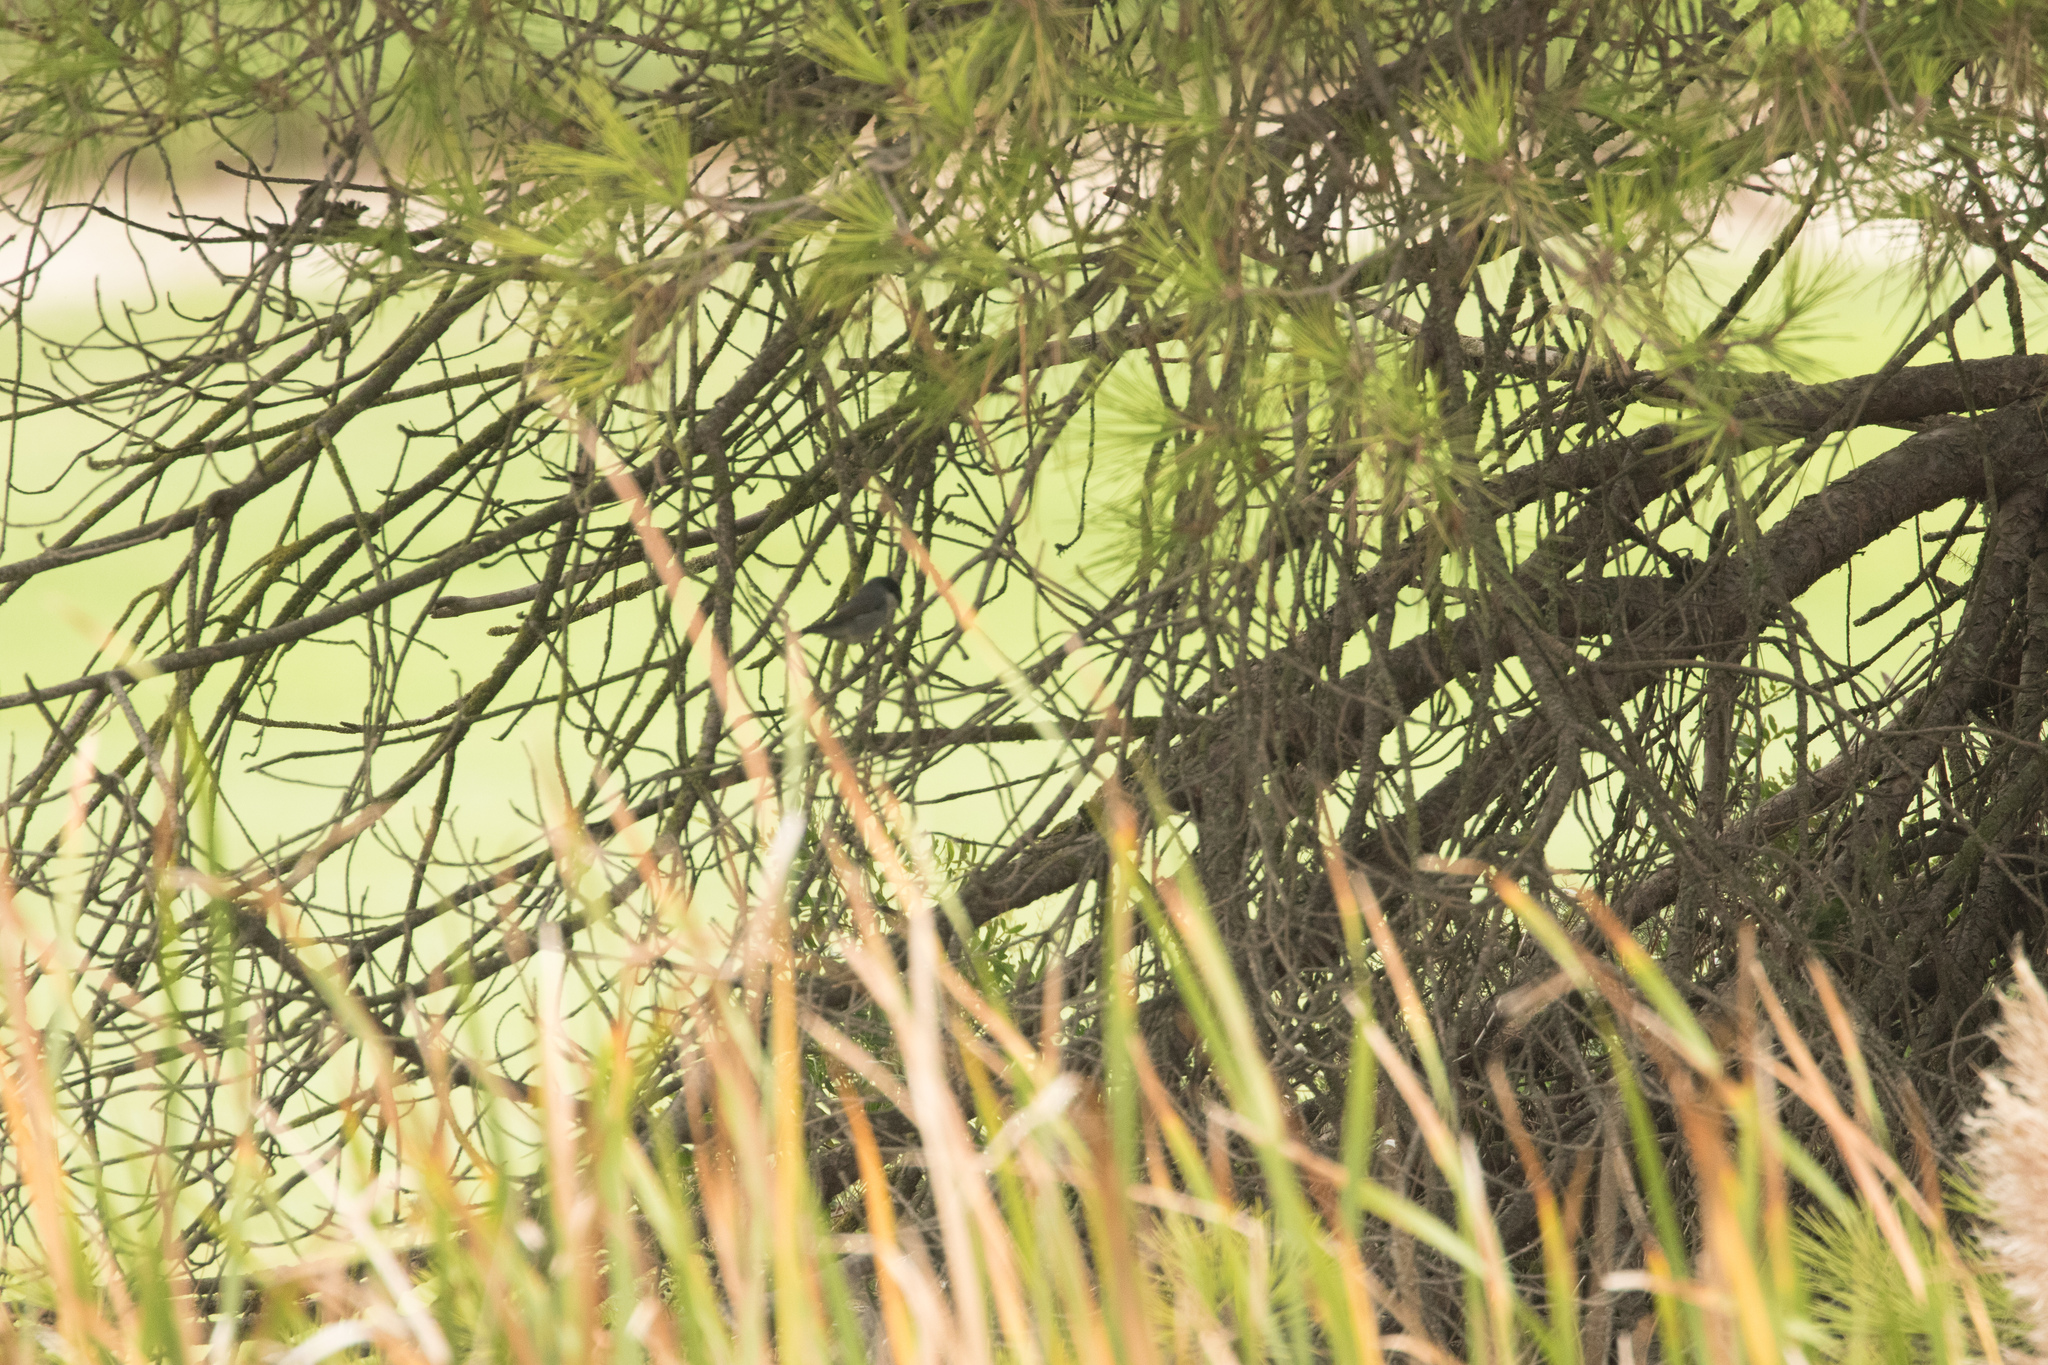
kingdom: Animalia
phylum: Chordata
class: Aves
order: Passeriformes
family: Sylviidae
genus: Curruca
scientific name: Curruca melanocephala
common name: Sardinian warbler
